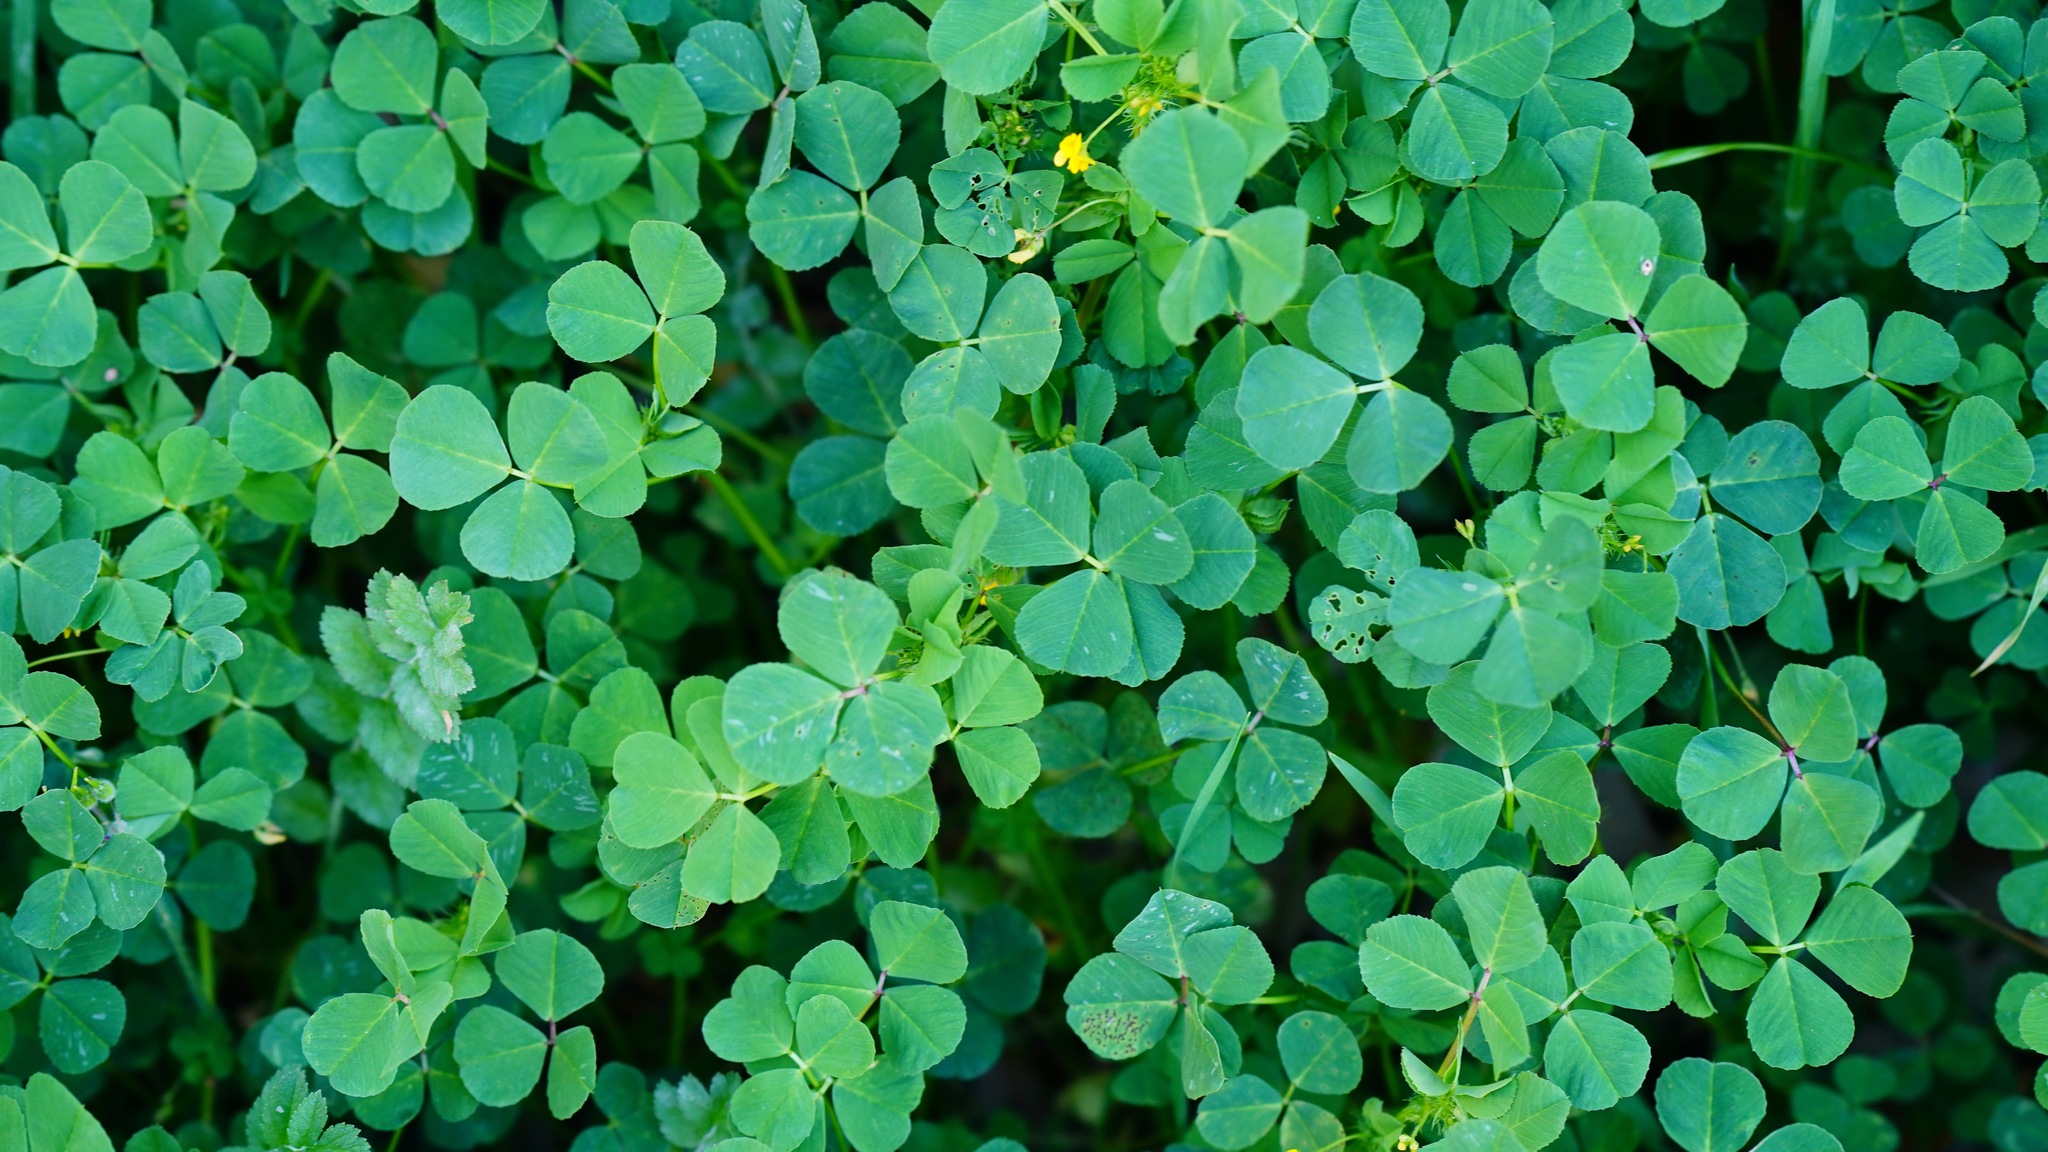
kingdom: Plantae
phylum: Tracheophyta
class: Magnoliopsida
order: Fabales
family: Fabaceae
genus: Medicago
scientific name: Medicago polymorpha
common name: Burclover
